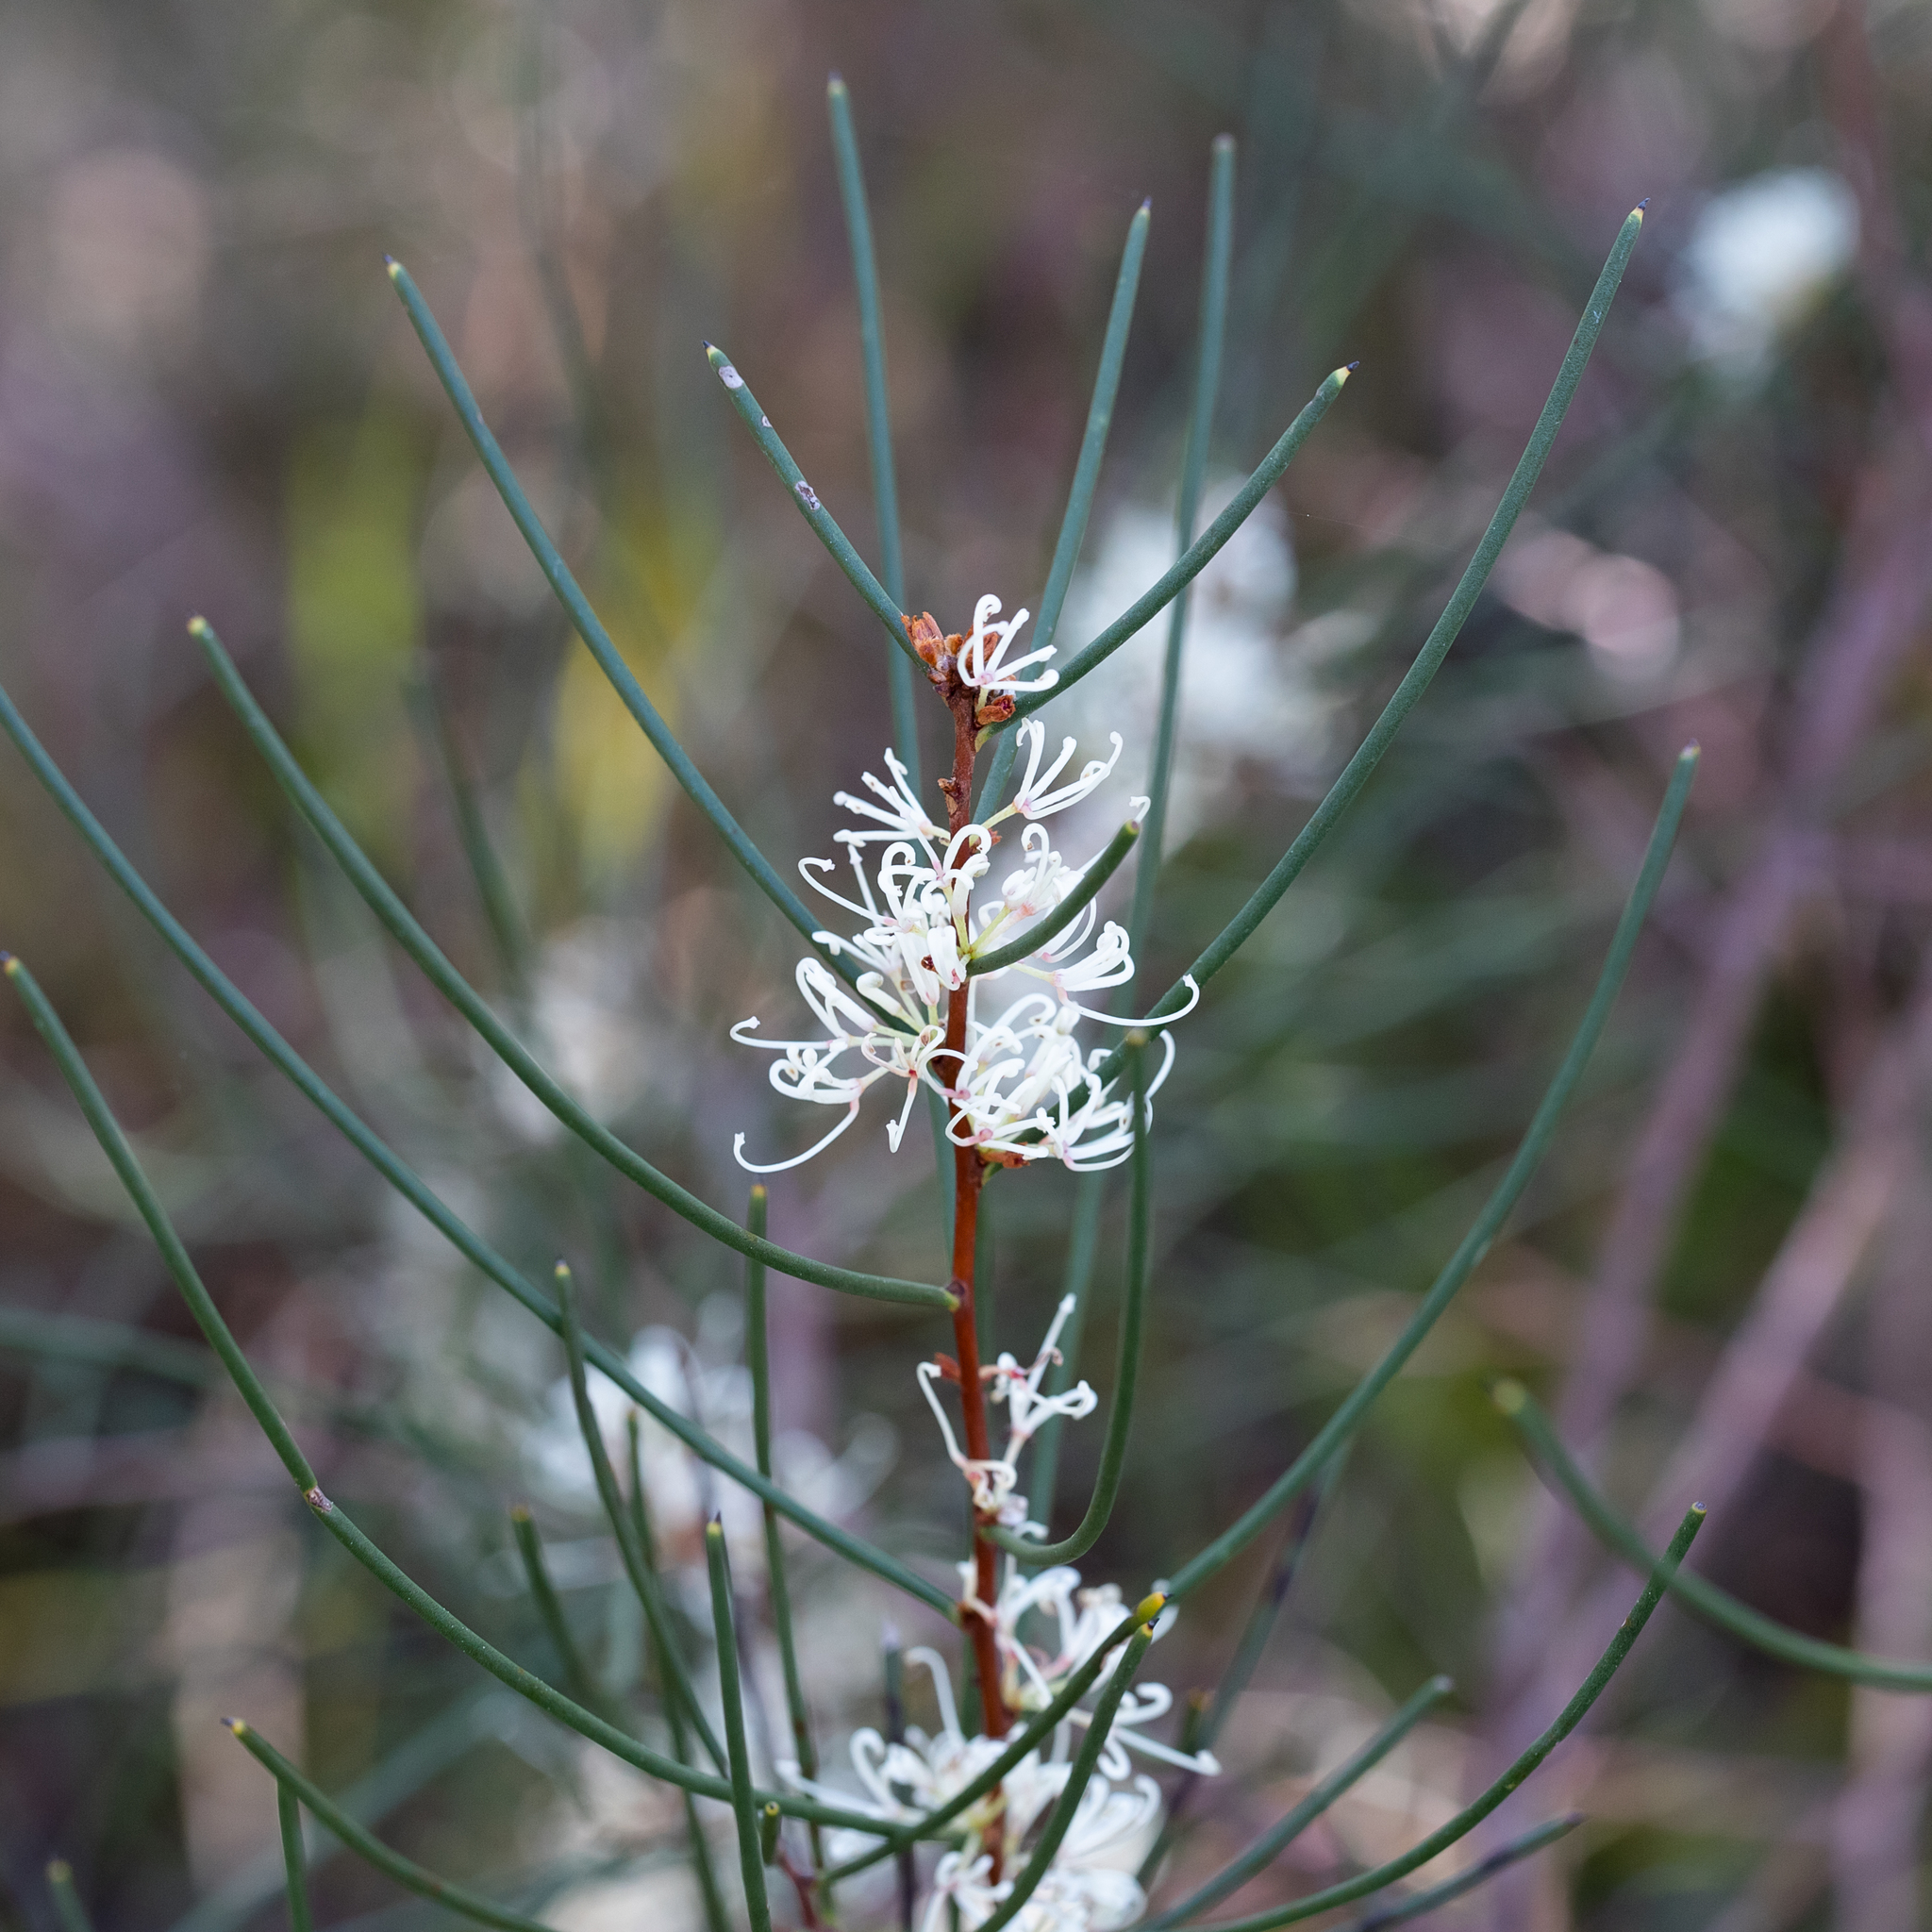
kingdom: Plantae
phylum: Tracheophyta
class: Magnoliopsida
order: Proteales
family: Proteaceae
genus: Hakea
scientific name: Hakea rostrata
